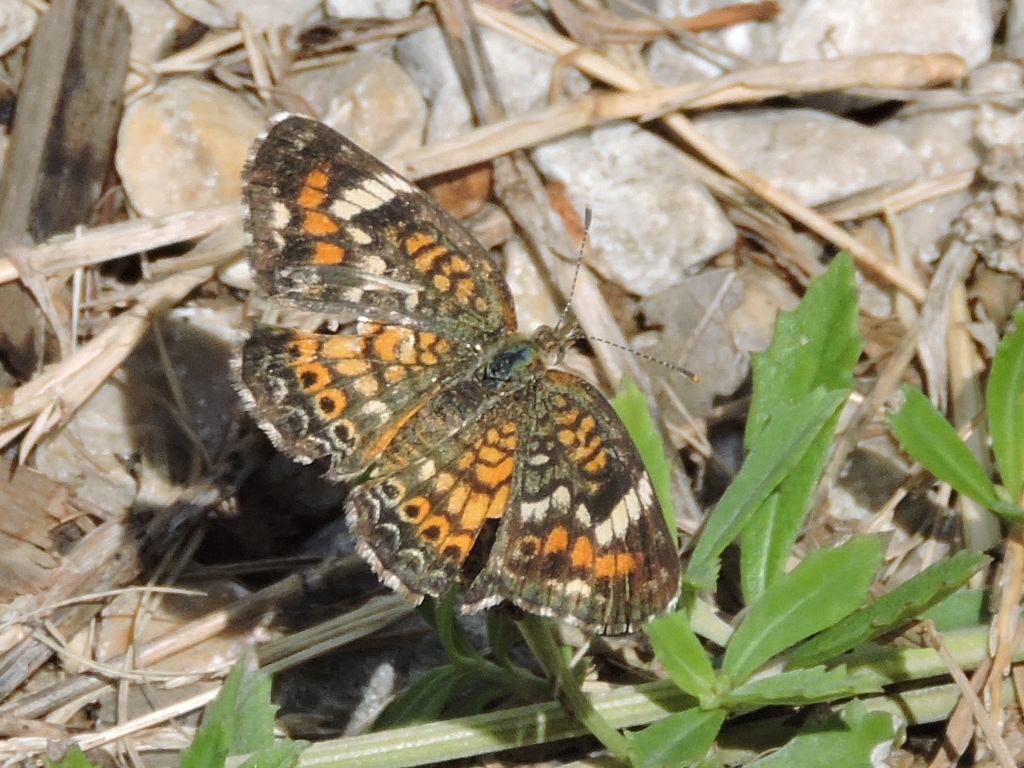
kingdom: Animalia
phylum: Arthropoda
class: Insecta
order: Lepidoptera
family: Nymphalidae
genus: Phyciodes
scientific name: Phyciodes phaon
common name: Phaon crescent
